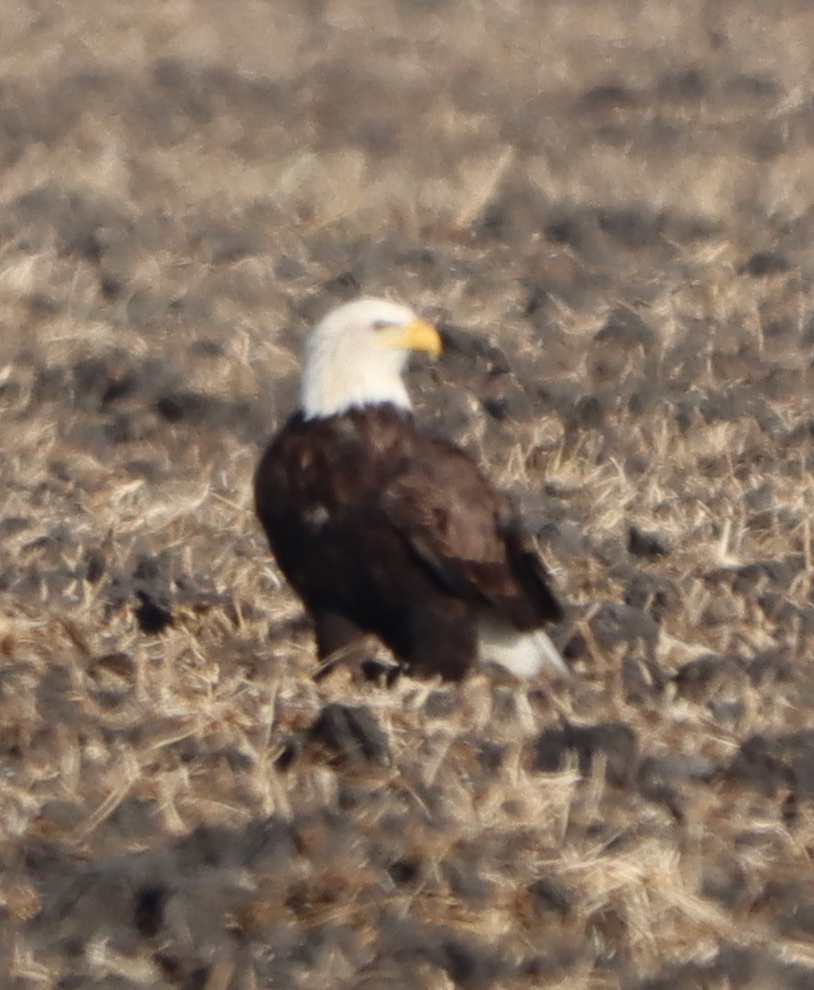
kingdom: Animalia
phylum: Chordata
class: Aves
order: Accipitriformes
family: Accipitridae
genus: Haliaeetus
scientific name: Haliaeetus leucocephalus
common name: Bald eagle
